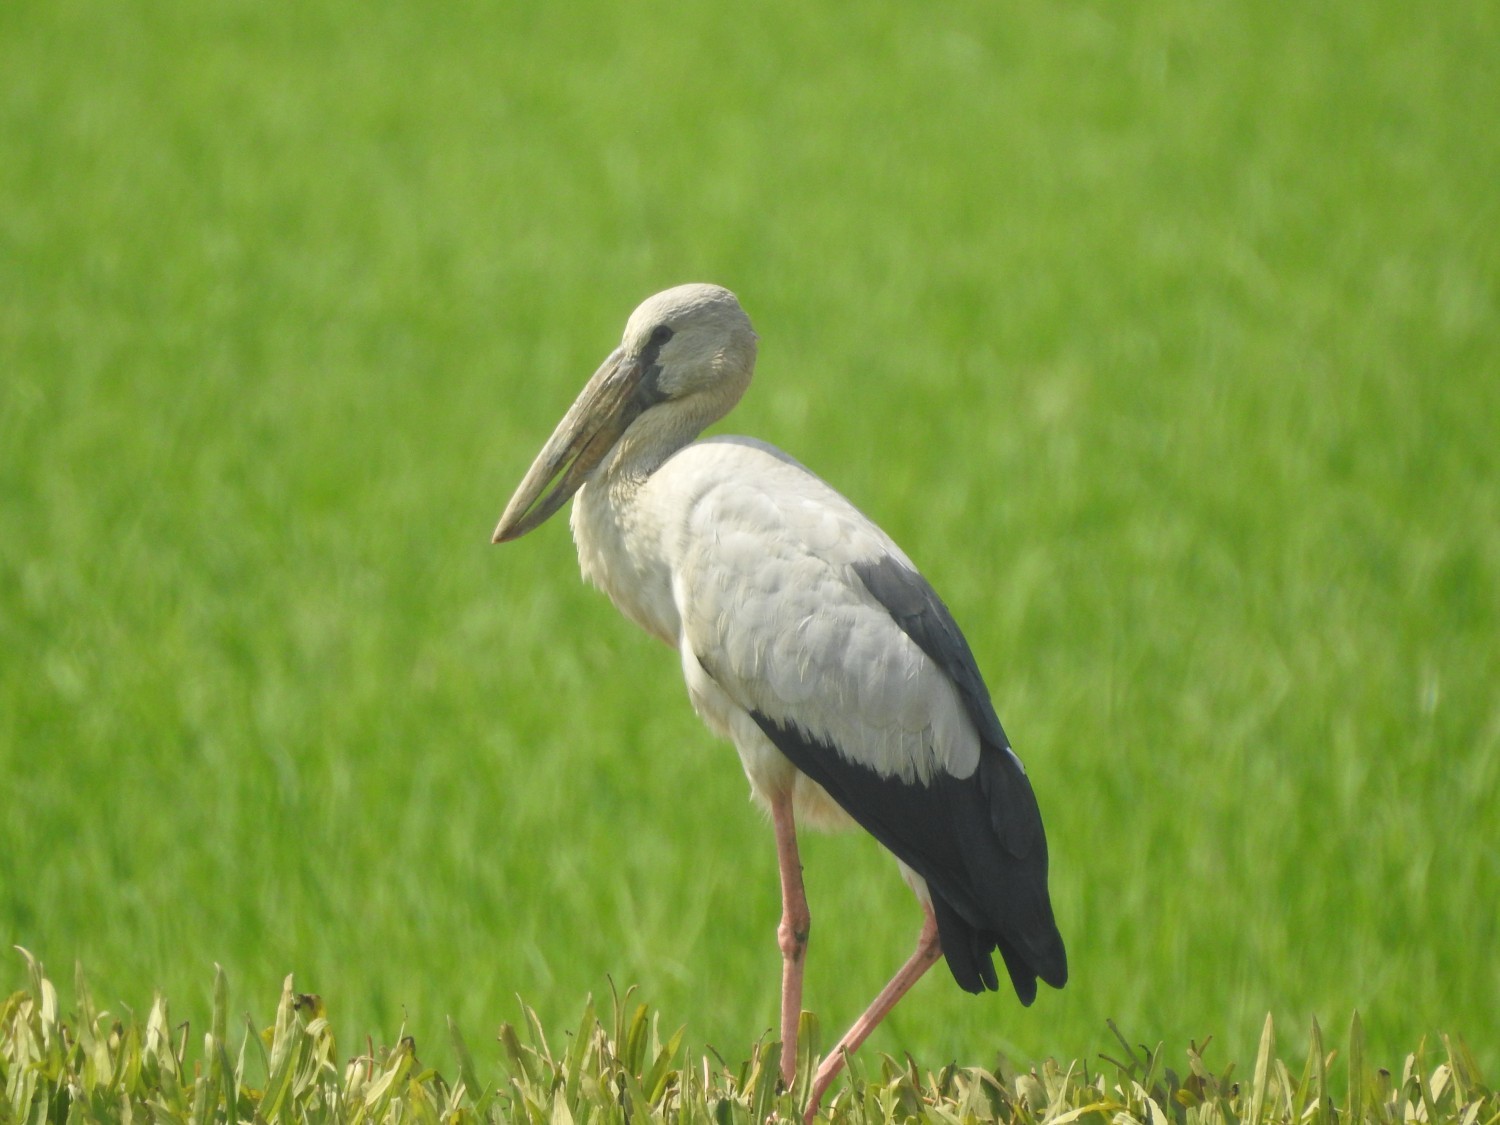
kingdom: Animalia
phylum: Chordata
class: Aves
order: Ciconiiformes
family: Ciconiidae
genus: Anastomus
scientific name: Anastomus oscitans
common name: Asian openbill
